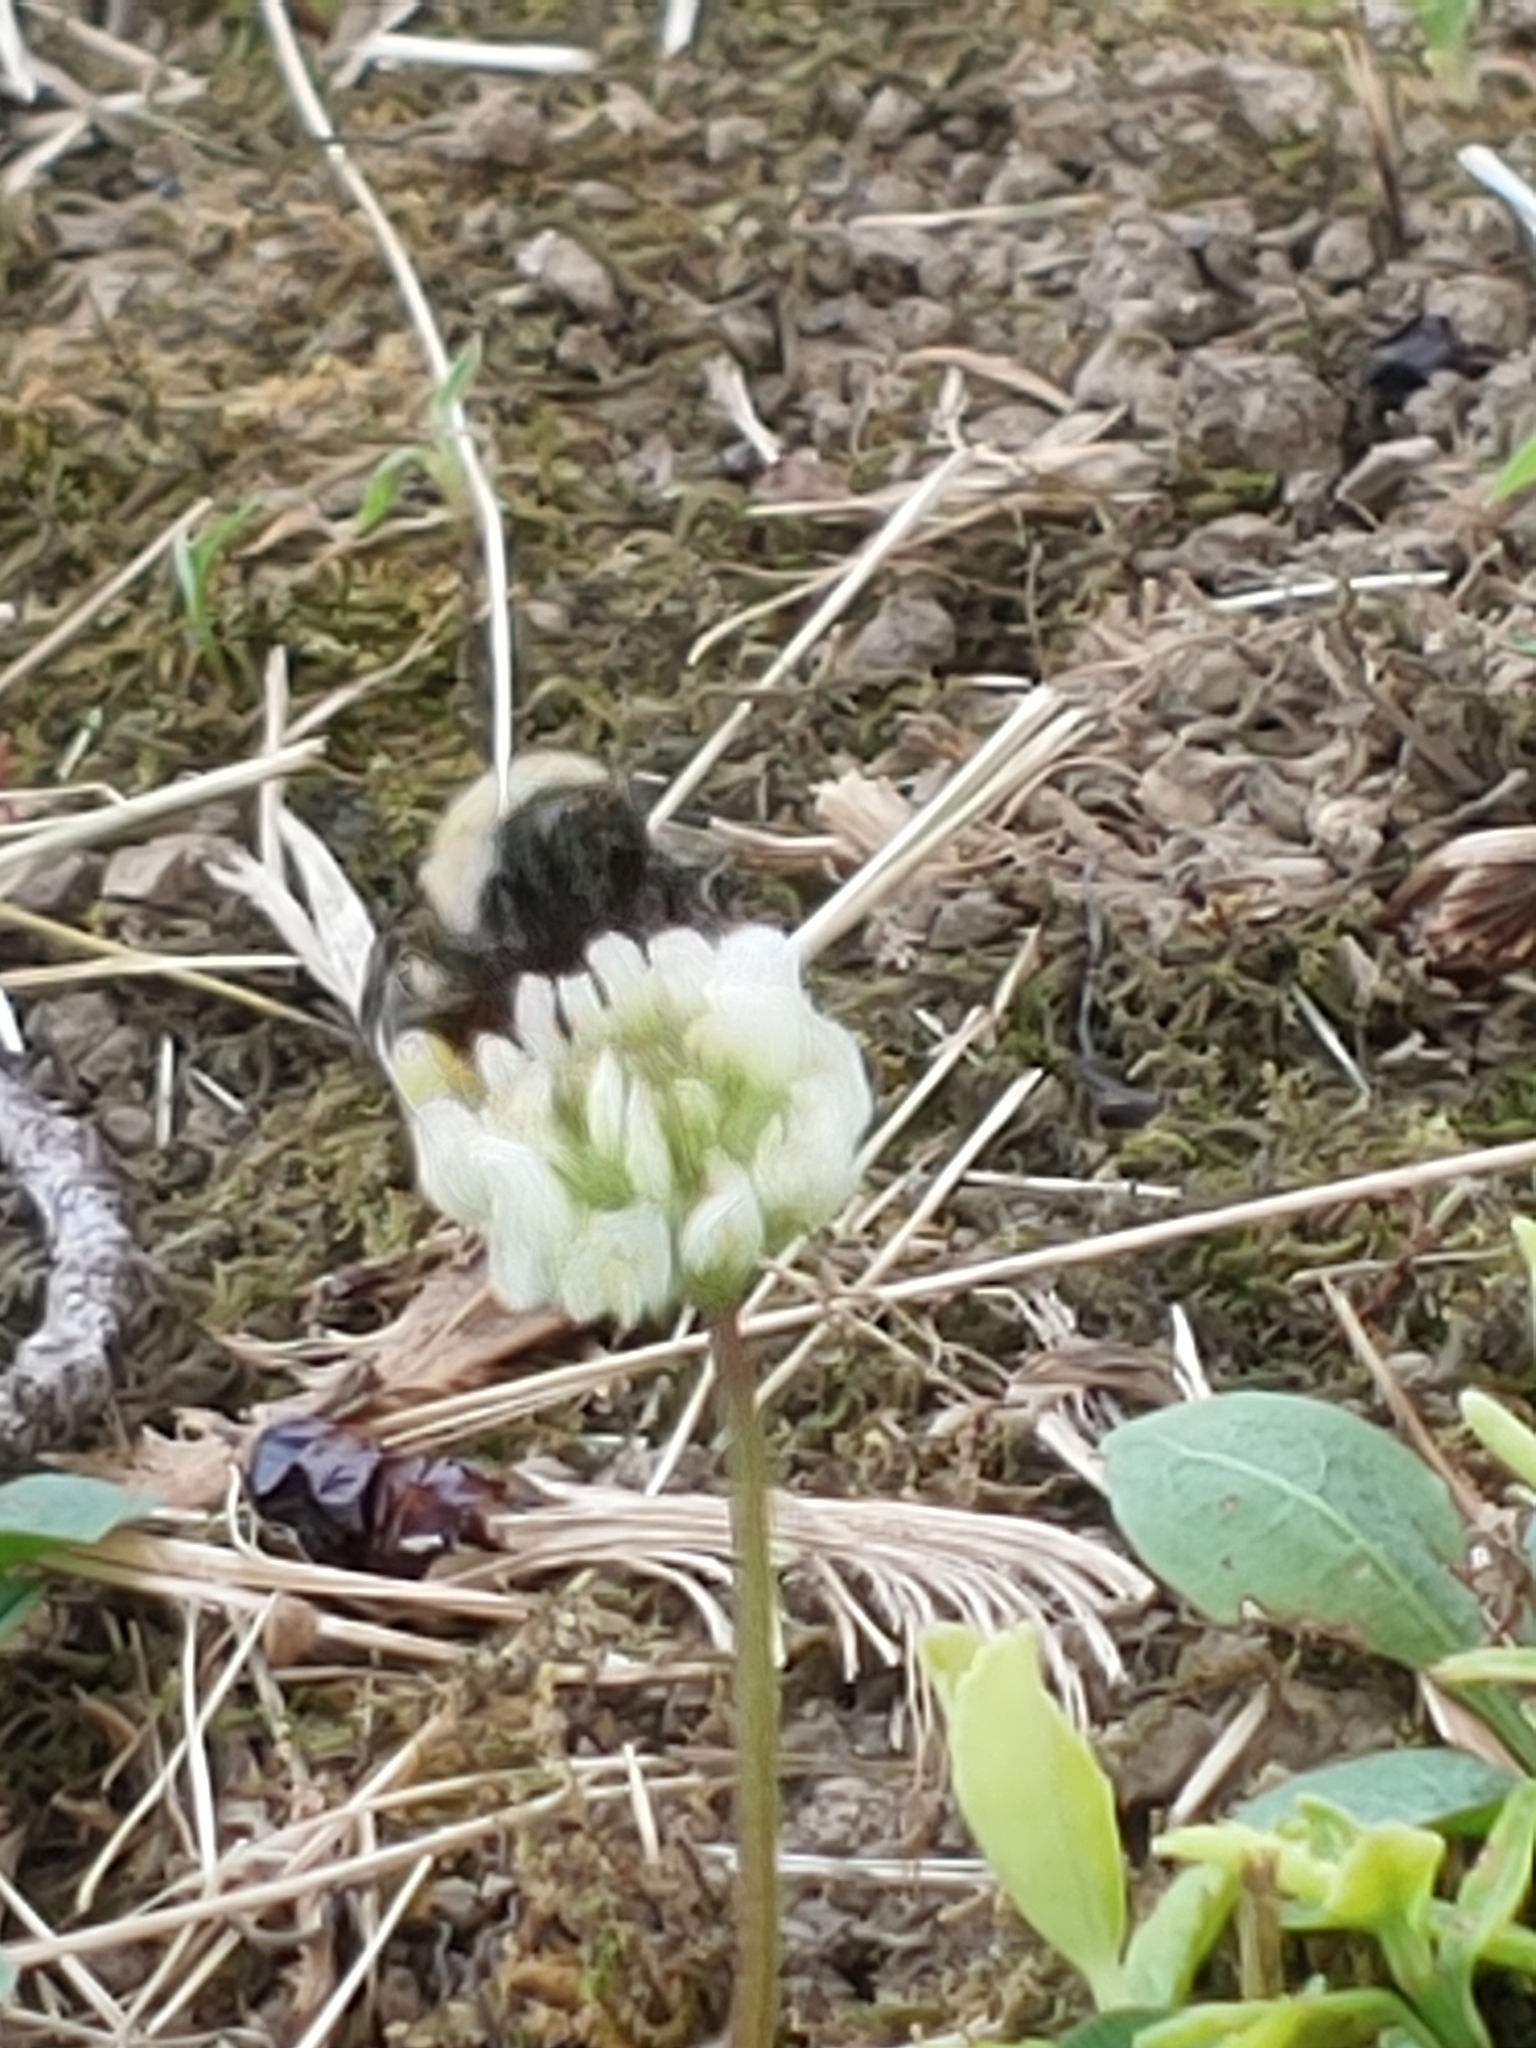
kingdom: Animalia
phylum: Arthropoda
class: Insecta
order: Hymenoptera
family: Apidae
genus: Bombus
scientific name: Bombus impatiens
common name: Common eastern bumble bee
